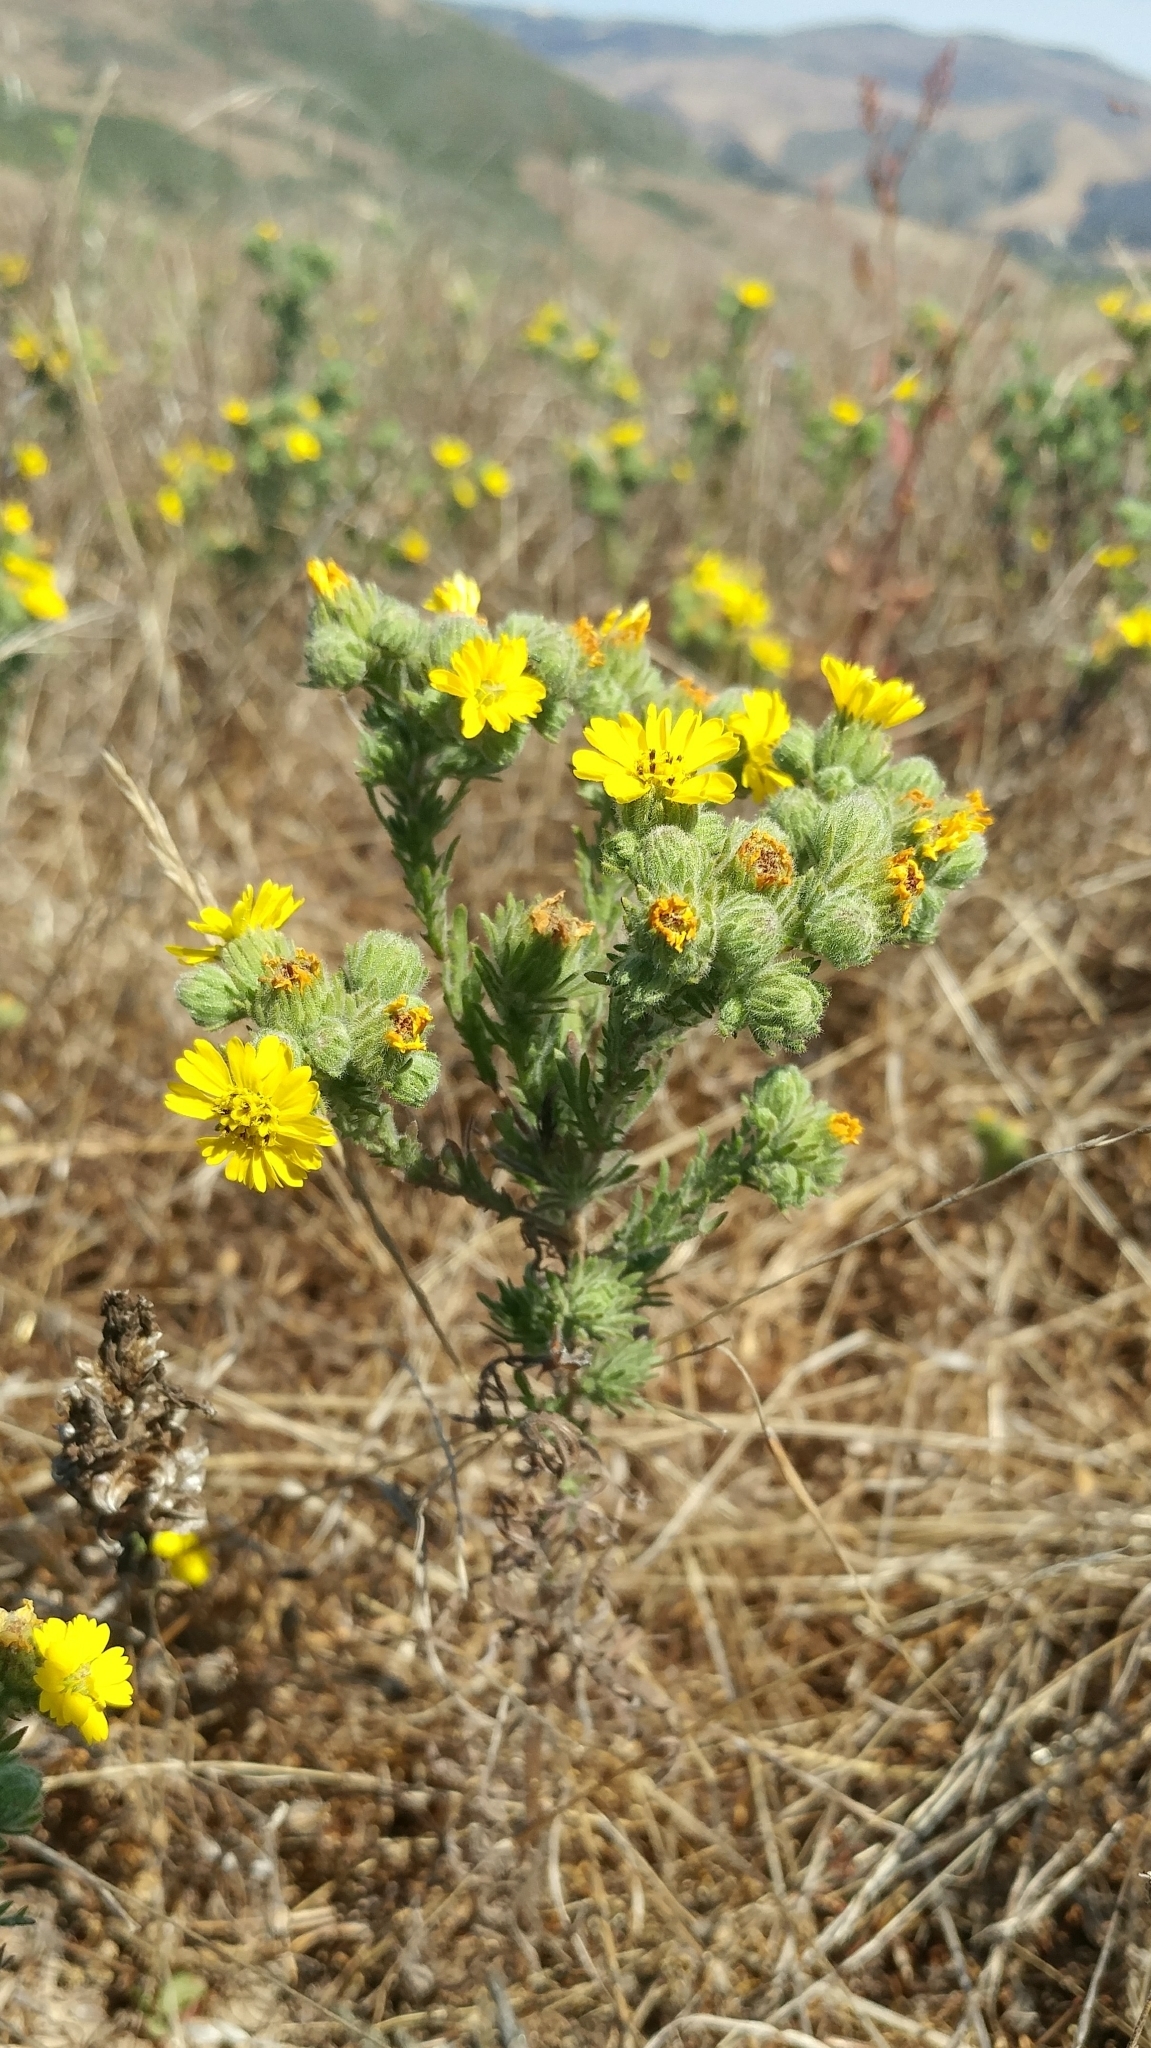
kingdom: Plantae
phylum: Tracheophyta
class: Magnoliopsida
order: Asterales
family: Asteraceae
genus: Deinandra
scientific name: Deinandra increscens
